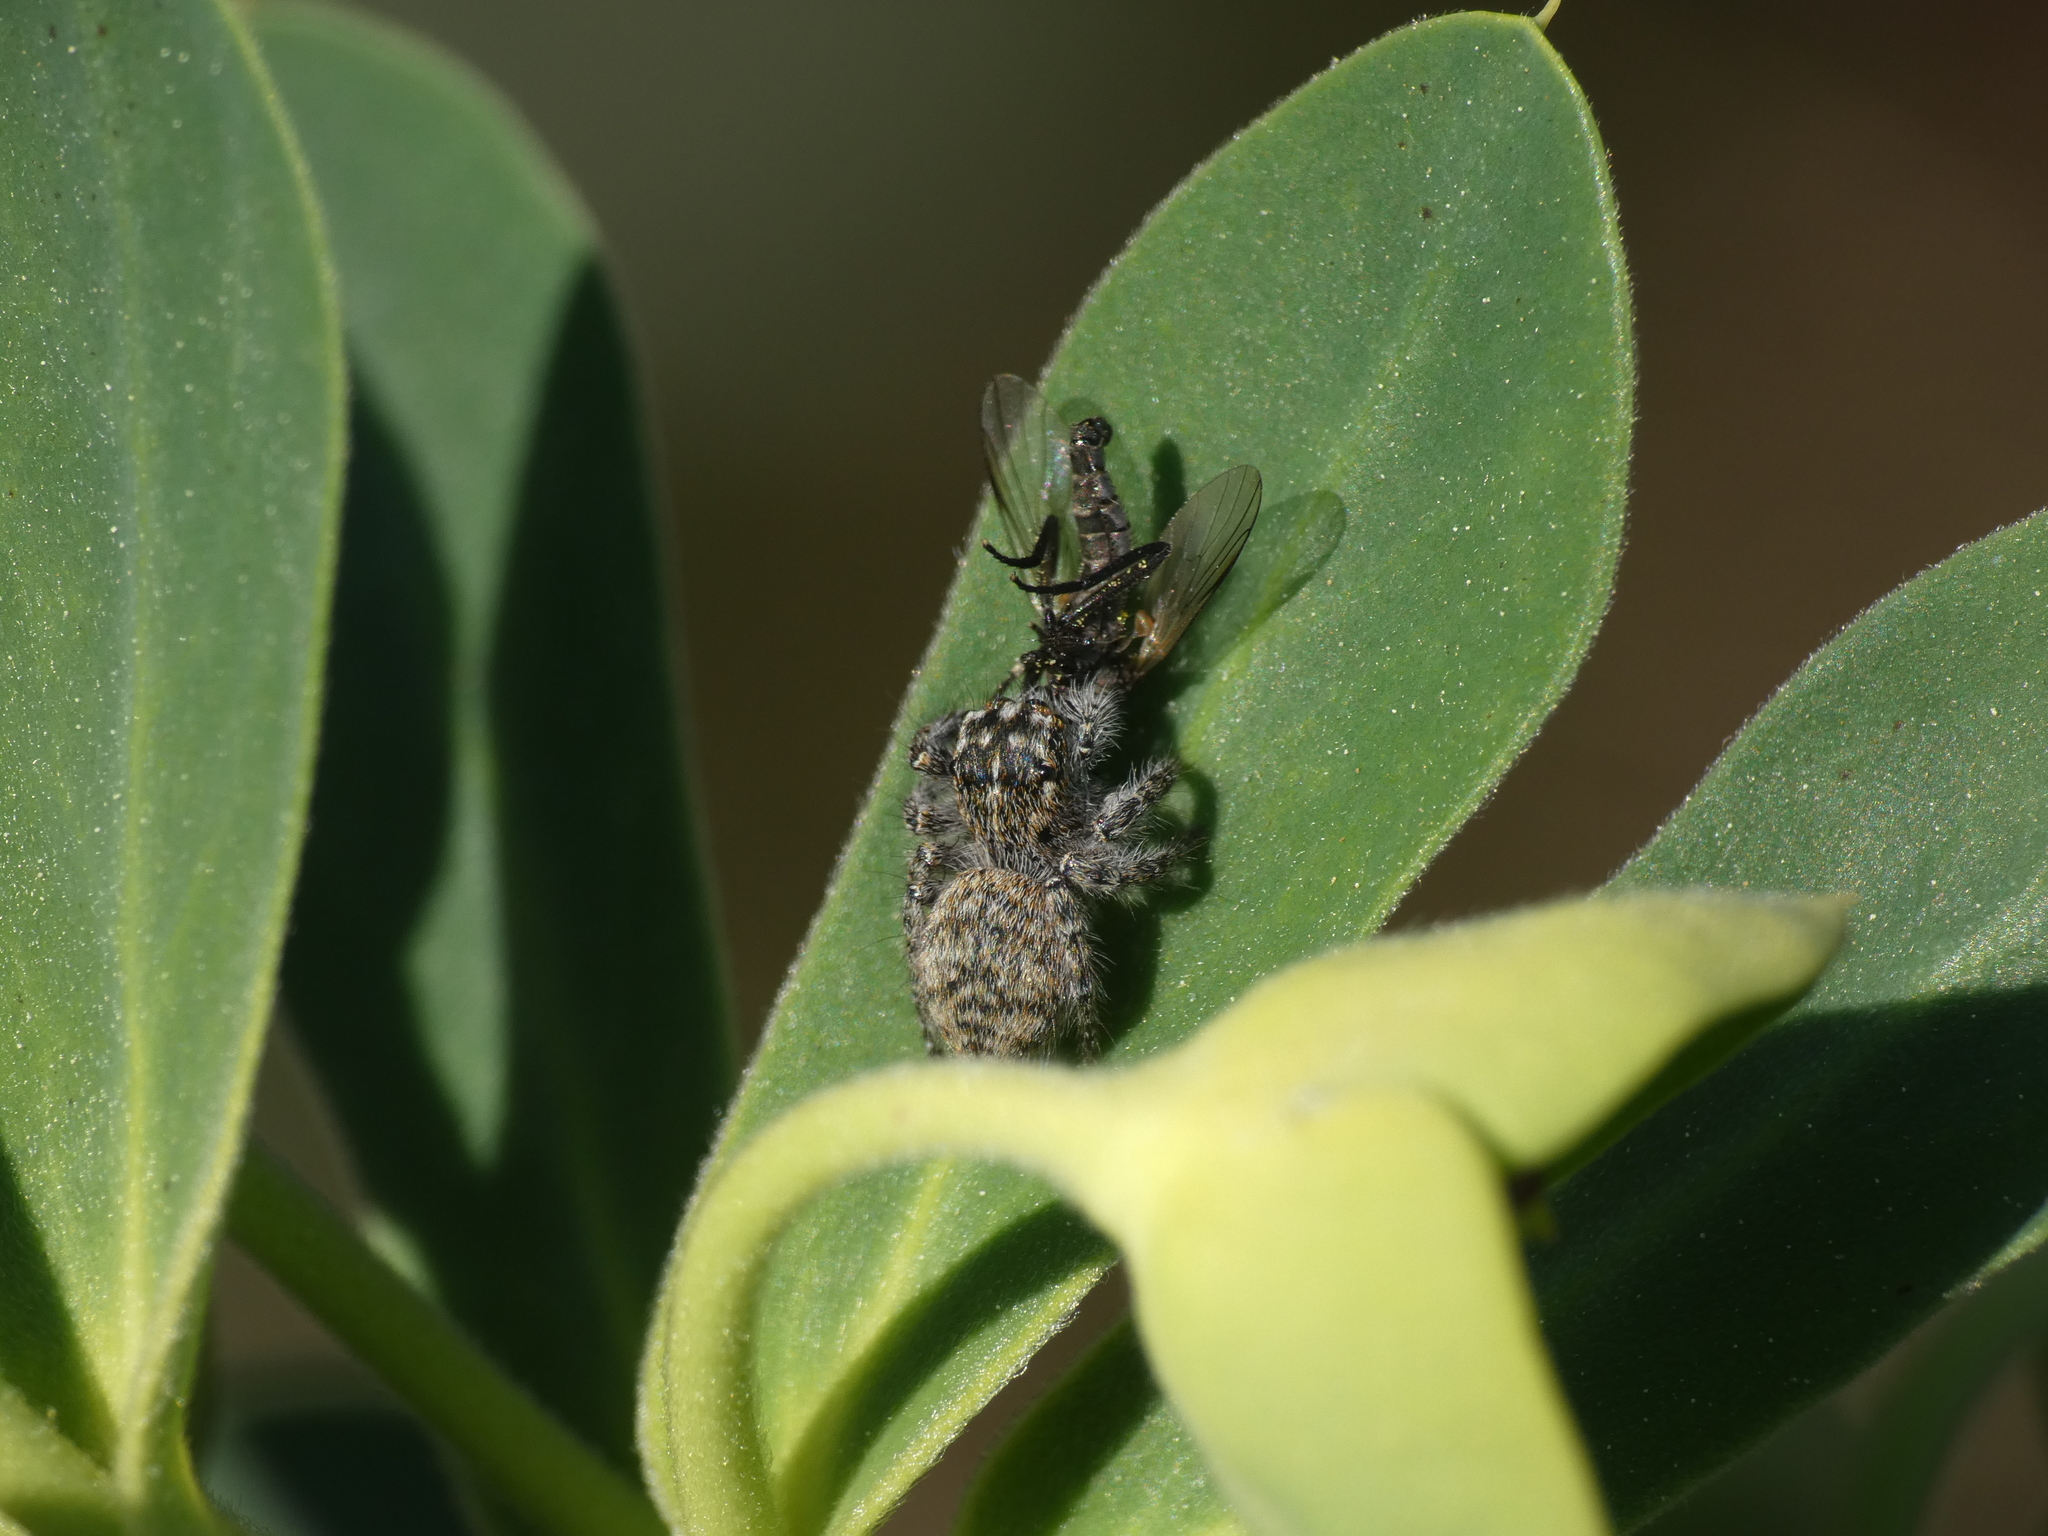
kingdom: Animalia
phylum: Arthropoda
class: Arachnida
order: Araneae
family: Salticidae
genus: Philaeus
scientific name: Philaeus chrysops
